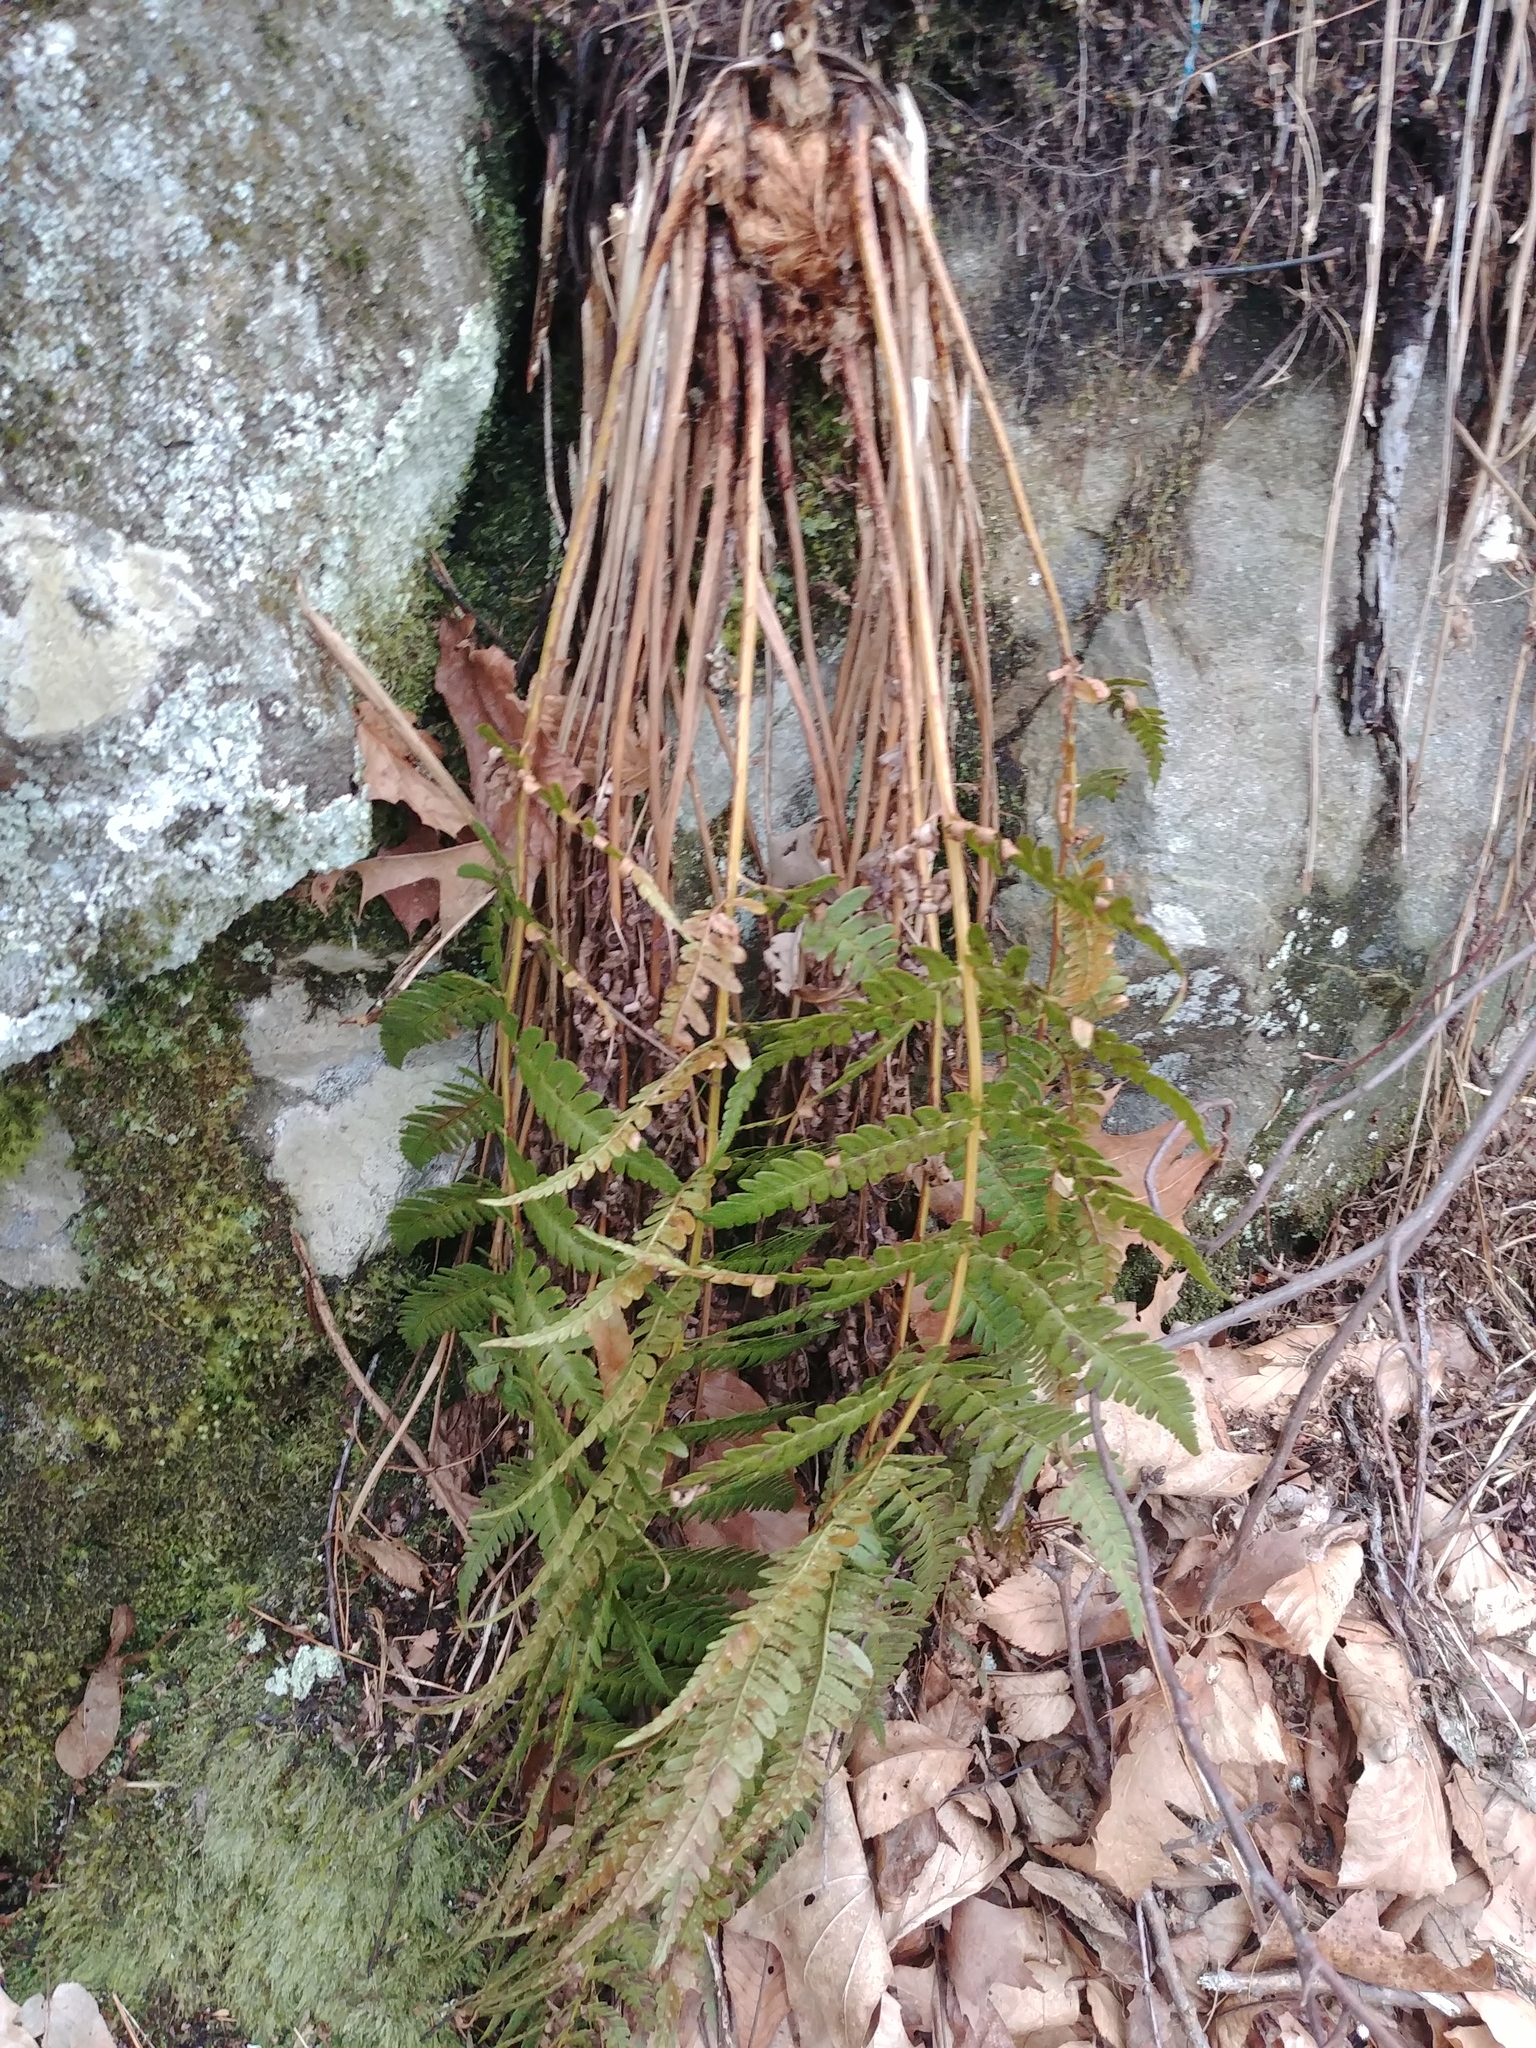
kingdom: Plantae
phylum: Tracheophyta
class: Polypodiopsida
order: Polypodiales
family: Dryopteridaceae
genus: Dryopteris
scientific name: Dryopteris marginalis
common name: Marginal wood fern
